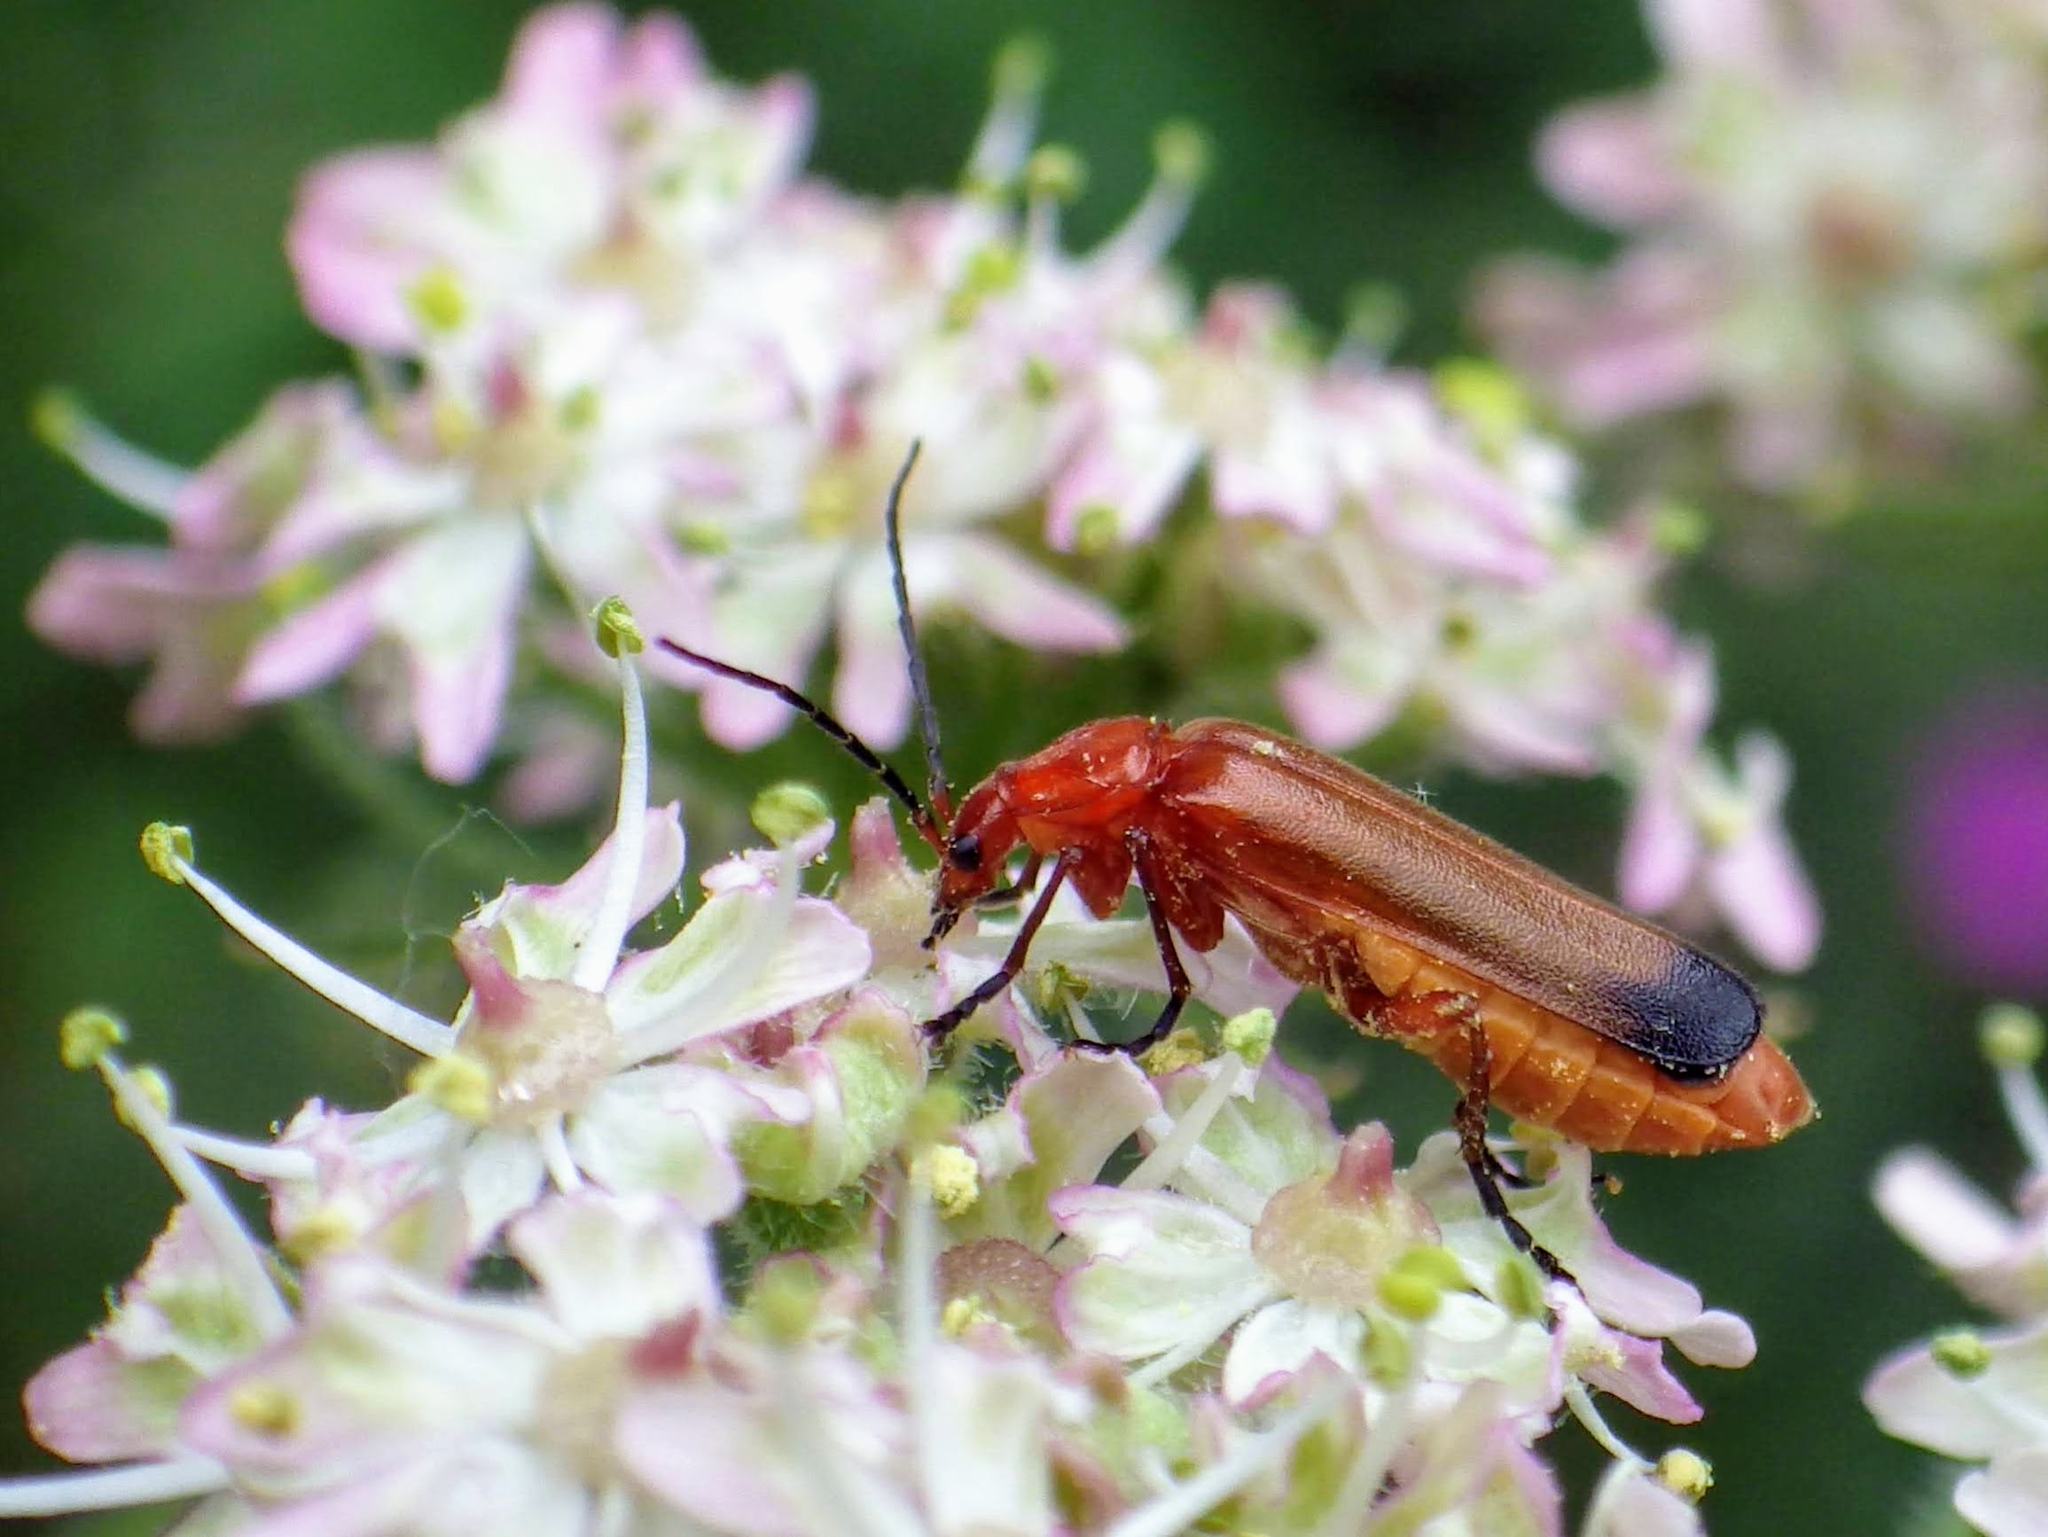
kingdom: Animalia
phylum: Arthropoda
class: Insecta
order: Coleoptera
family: Cantharidae
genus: Rhagonycha
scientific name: Rhagonycha fulva
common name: Common red soldier beetle
